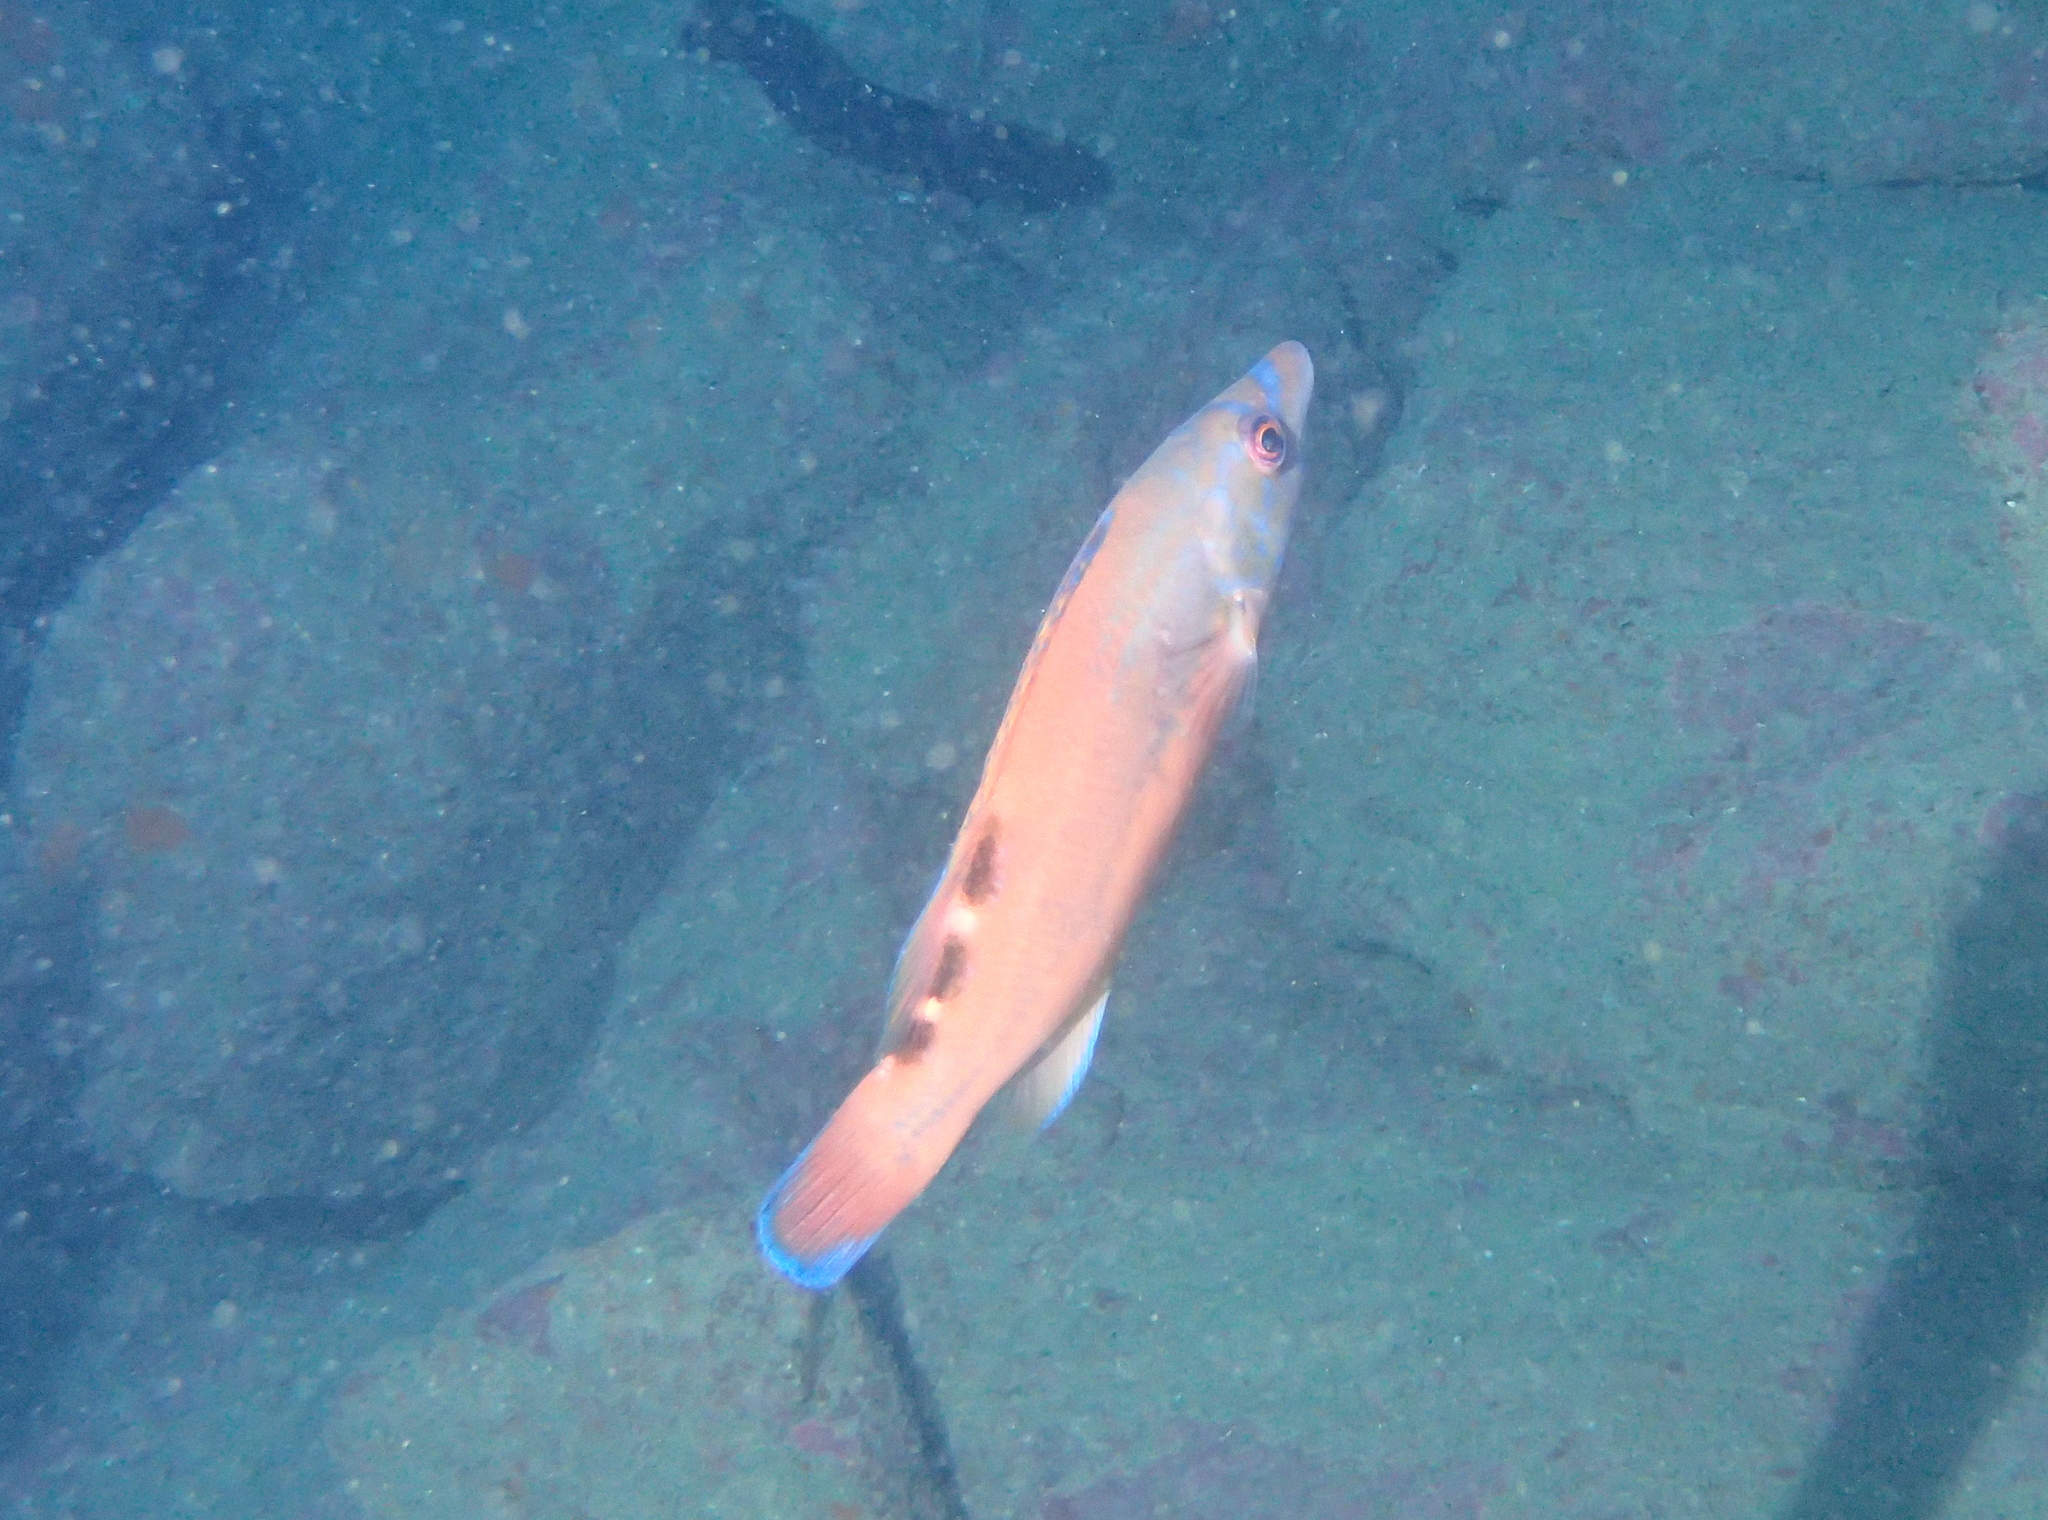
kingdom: Animalia
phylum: Chordata
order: Perciformes
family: Labridae
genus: Labrus
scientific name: Labrus mixtus
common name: Cuckoo wrasse
